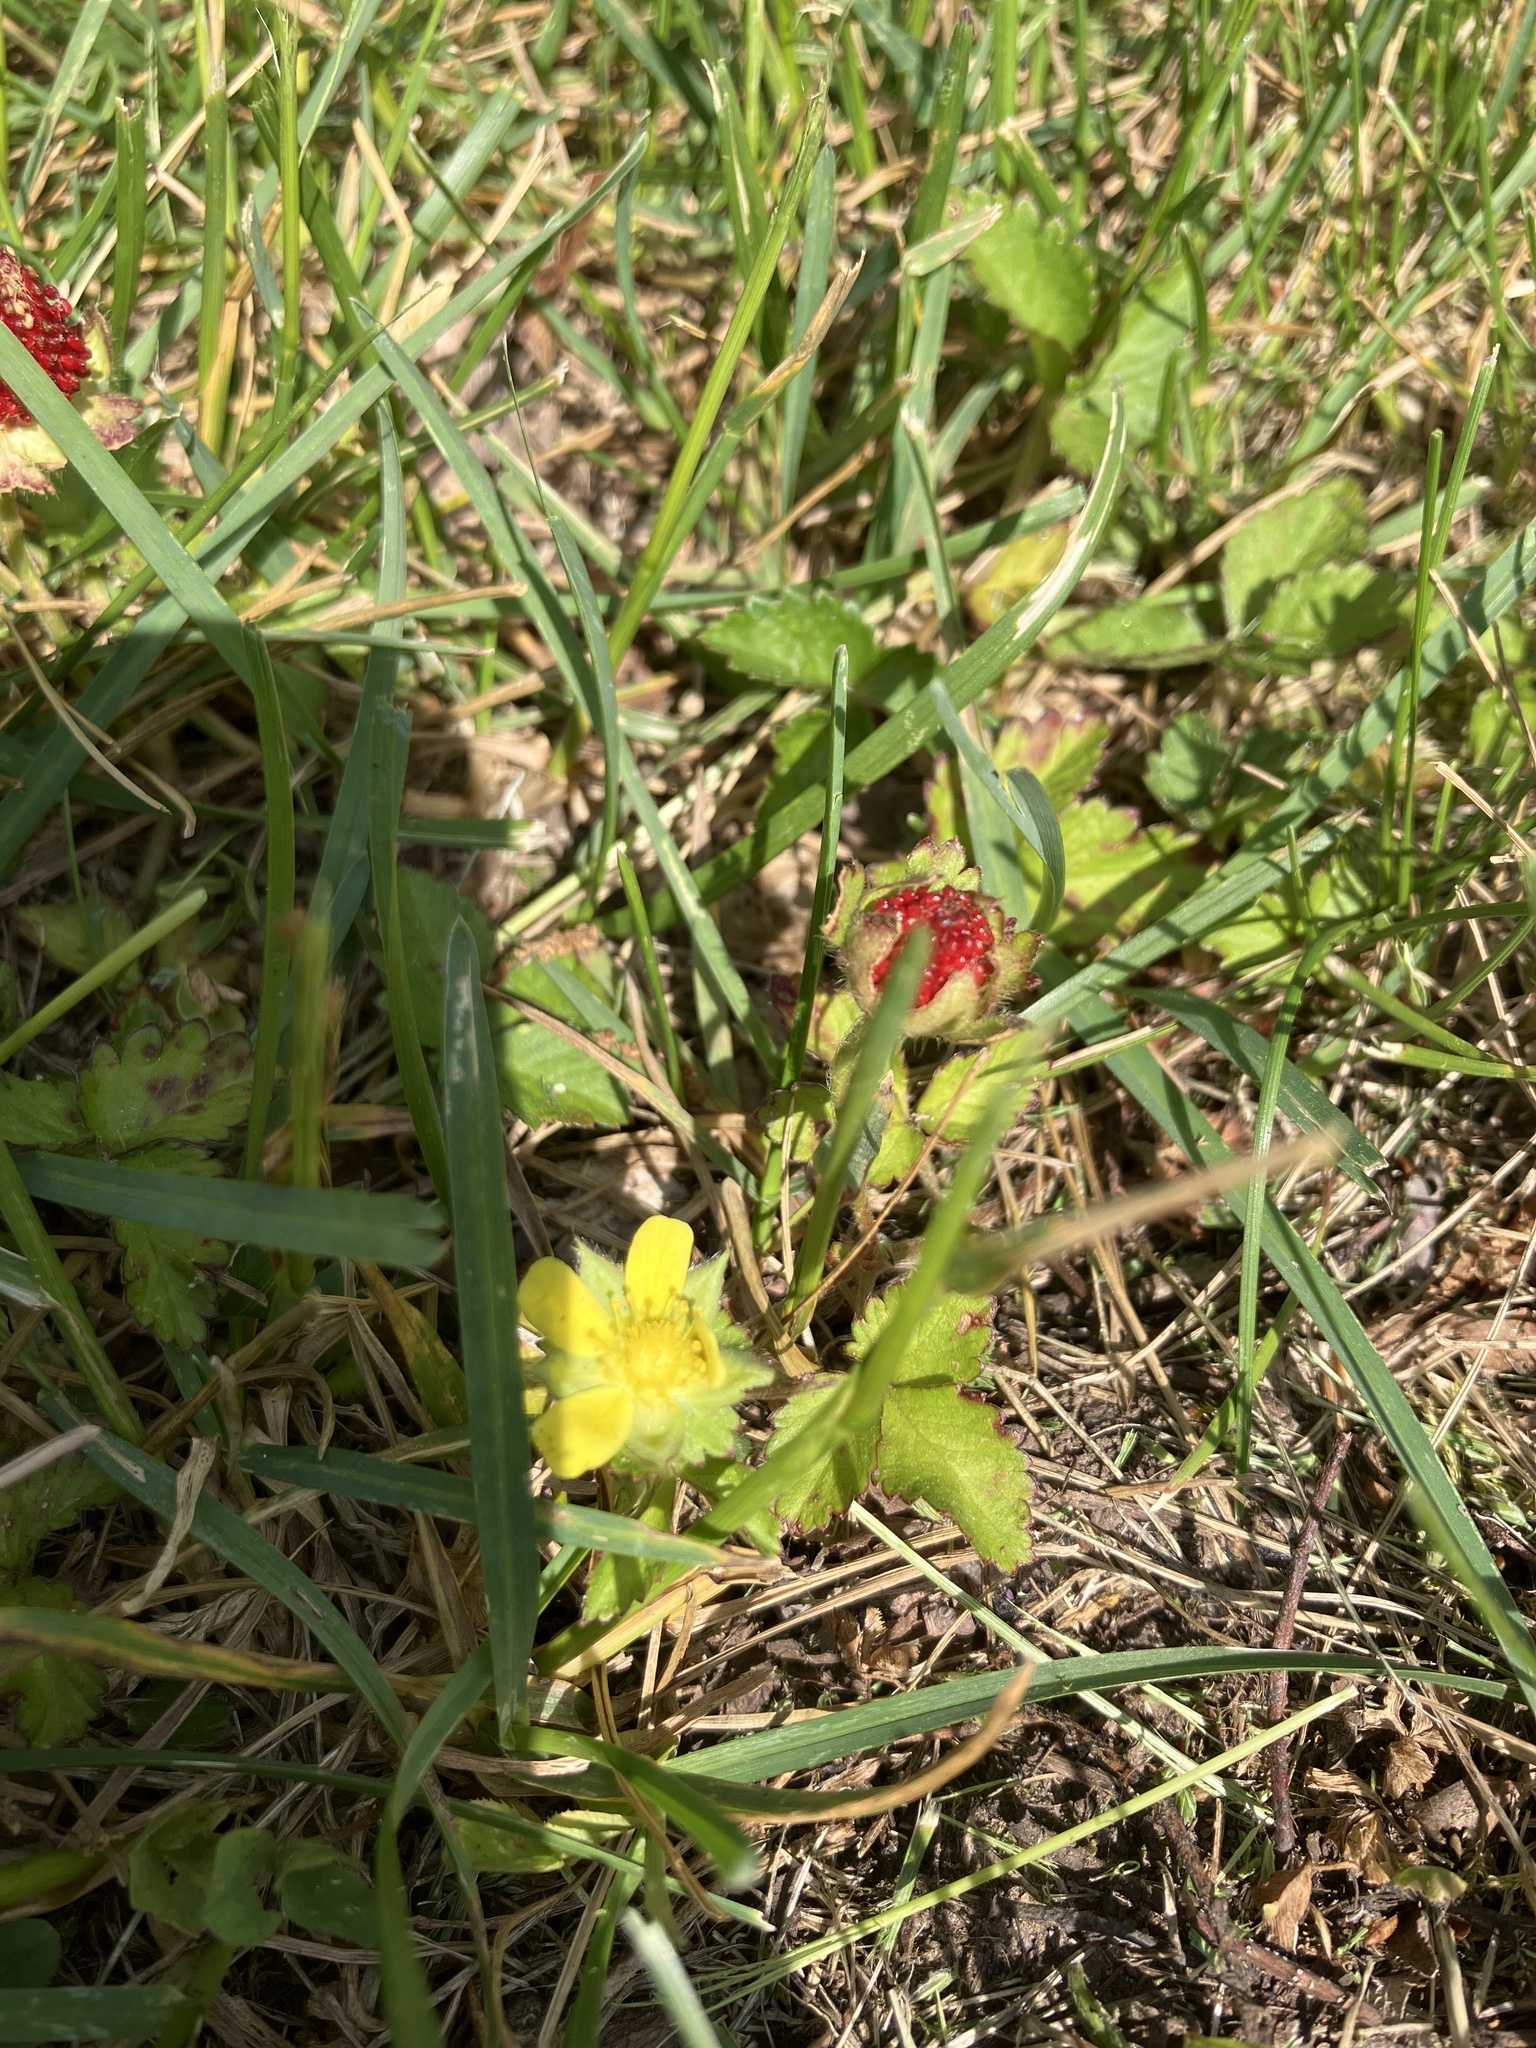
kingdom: Plantae
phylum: Tracheophyta
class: Magnoliopsida
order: Rosales
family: Rosaceae
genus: Potentilla
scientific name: Potentilla indica
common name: Yellow-flowered strawberry
